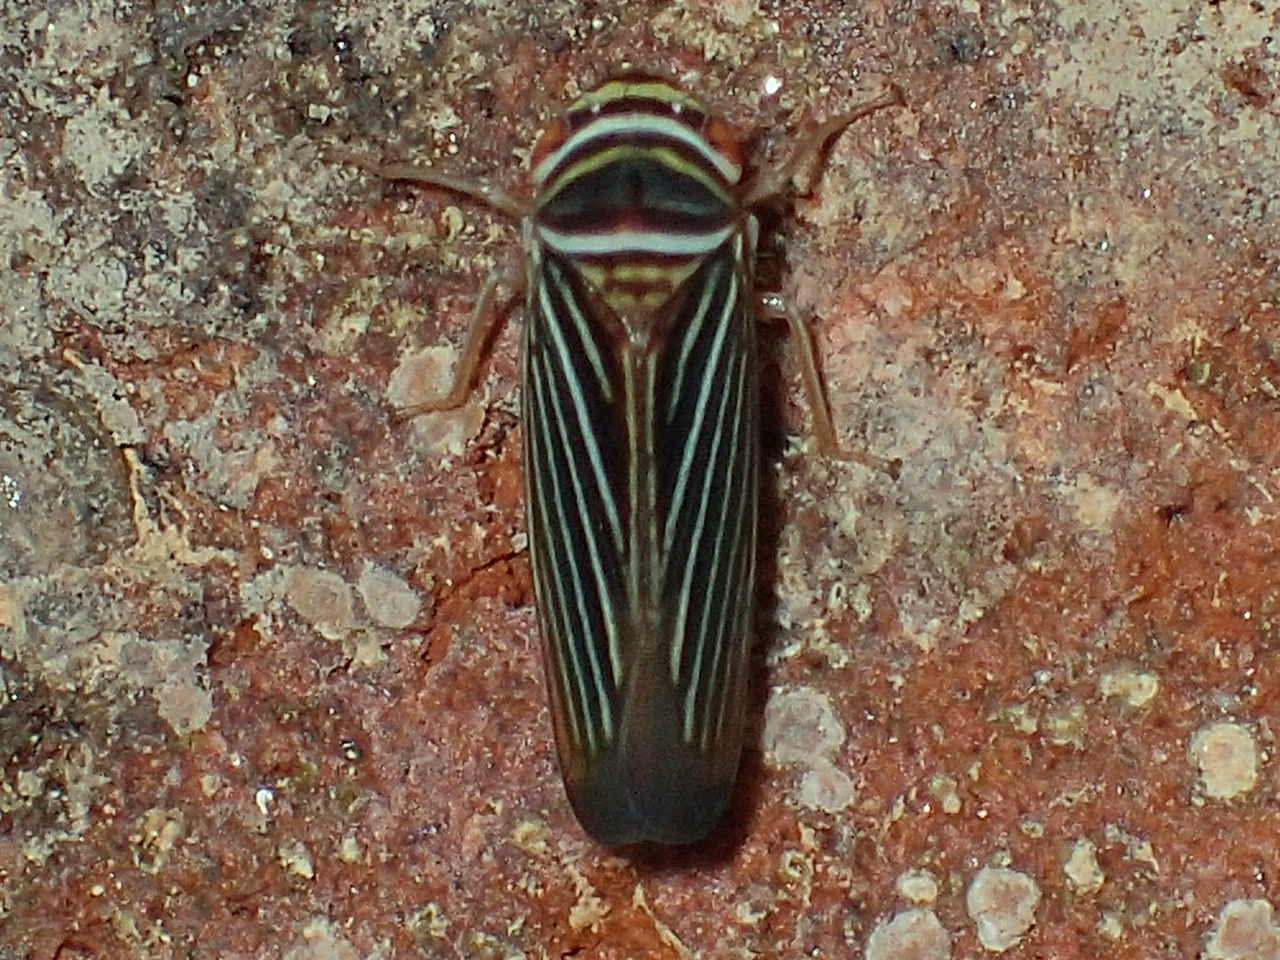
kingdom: Animalia
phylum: Arthropoda
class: Insecta
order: Hemiptera
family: Cicadellidae
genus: Tylozygus
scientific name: Tylozygus bifidus
